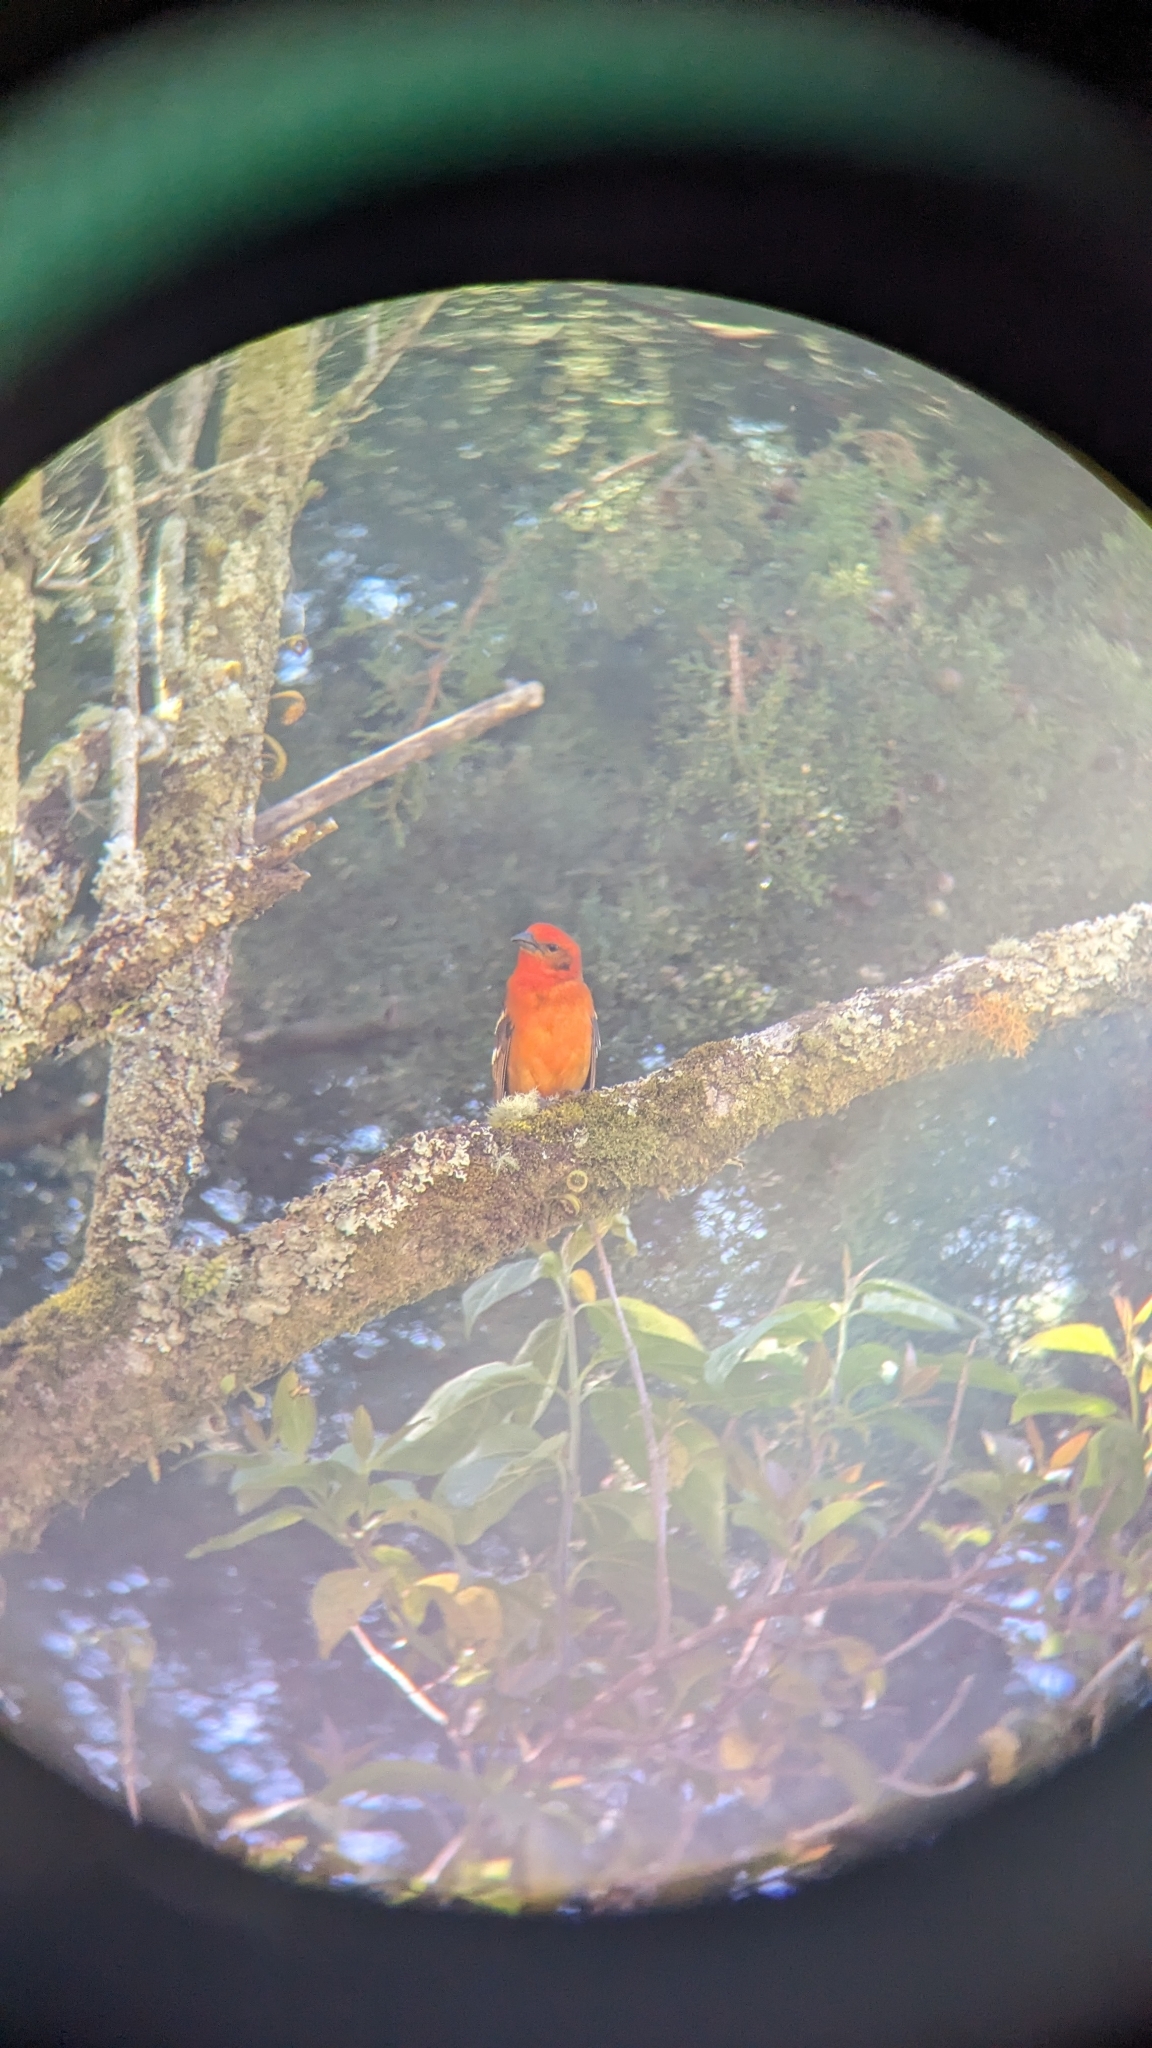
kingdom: Animalia
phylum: Chordata
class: Aves
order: Passeriformes
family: Cardinalidae
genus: Piranga
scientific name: Piranga bidentata
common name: Flame-colored tanager
